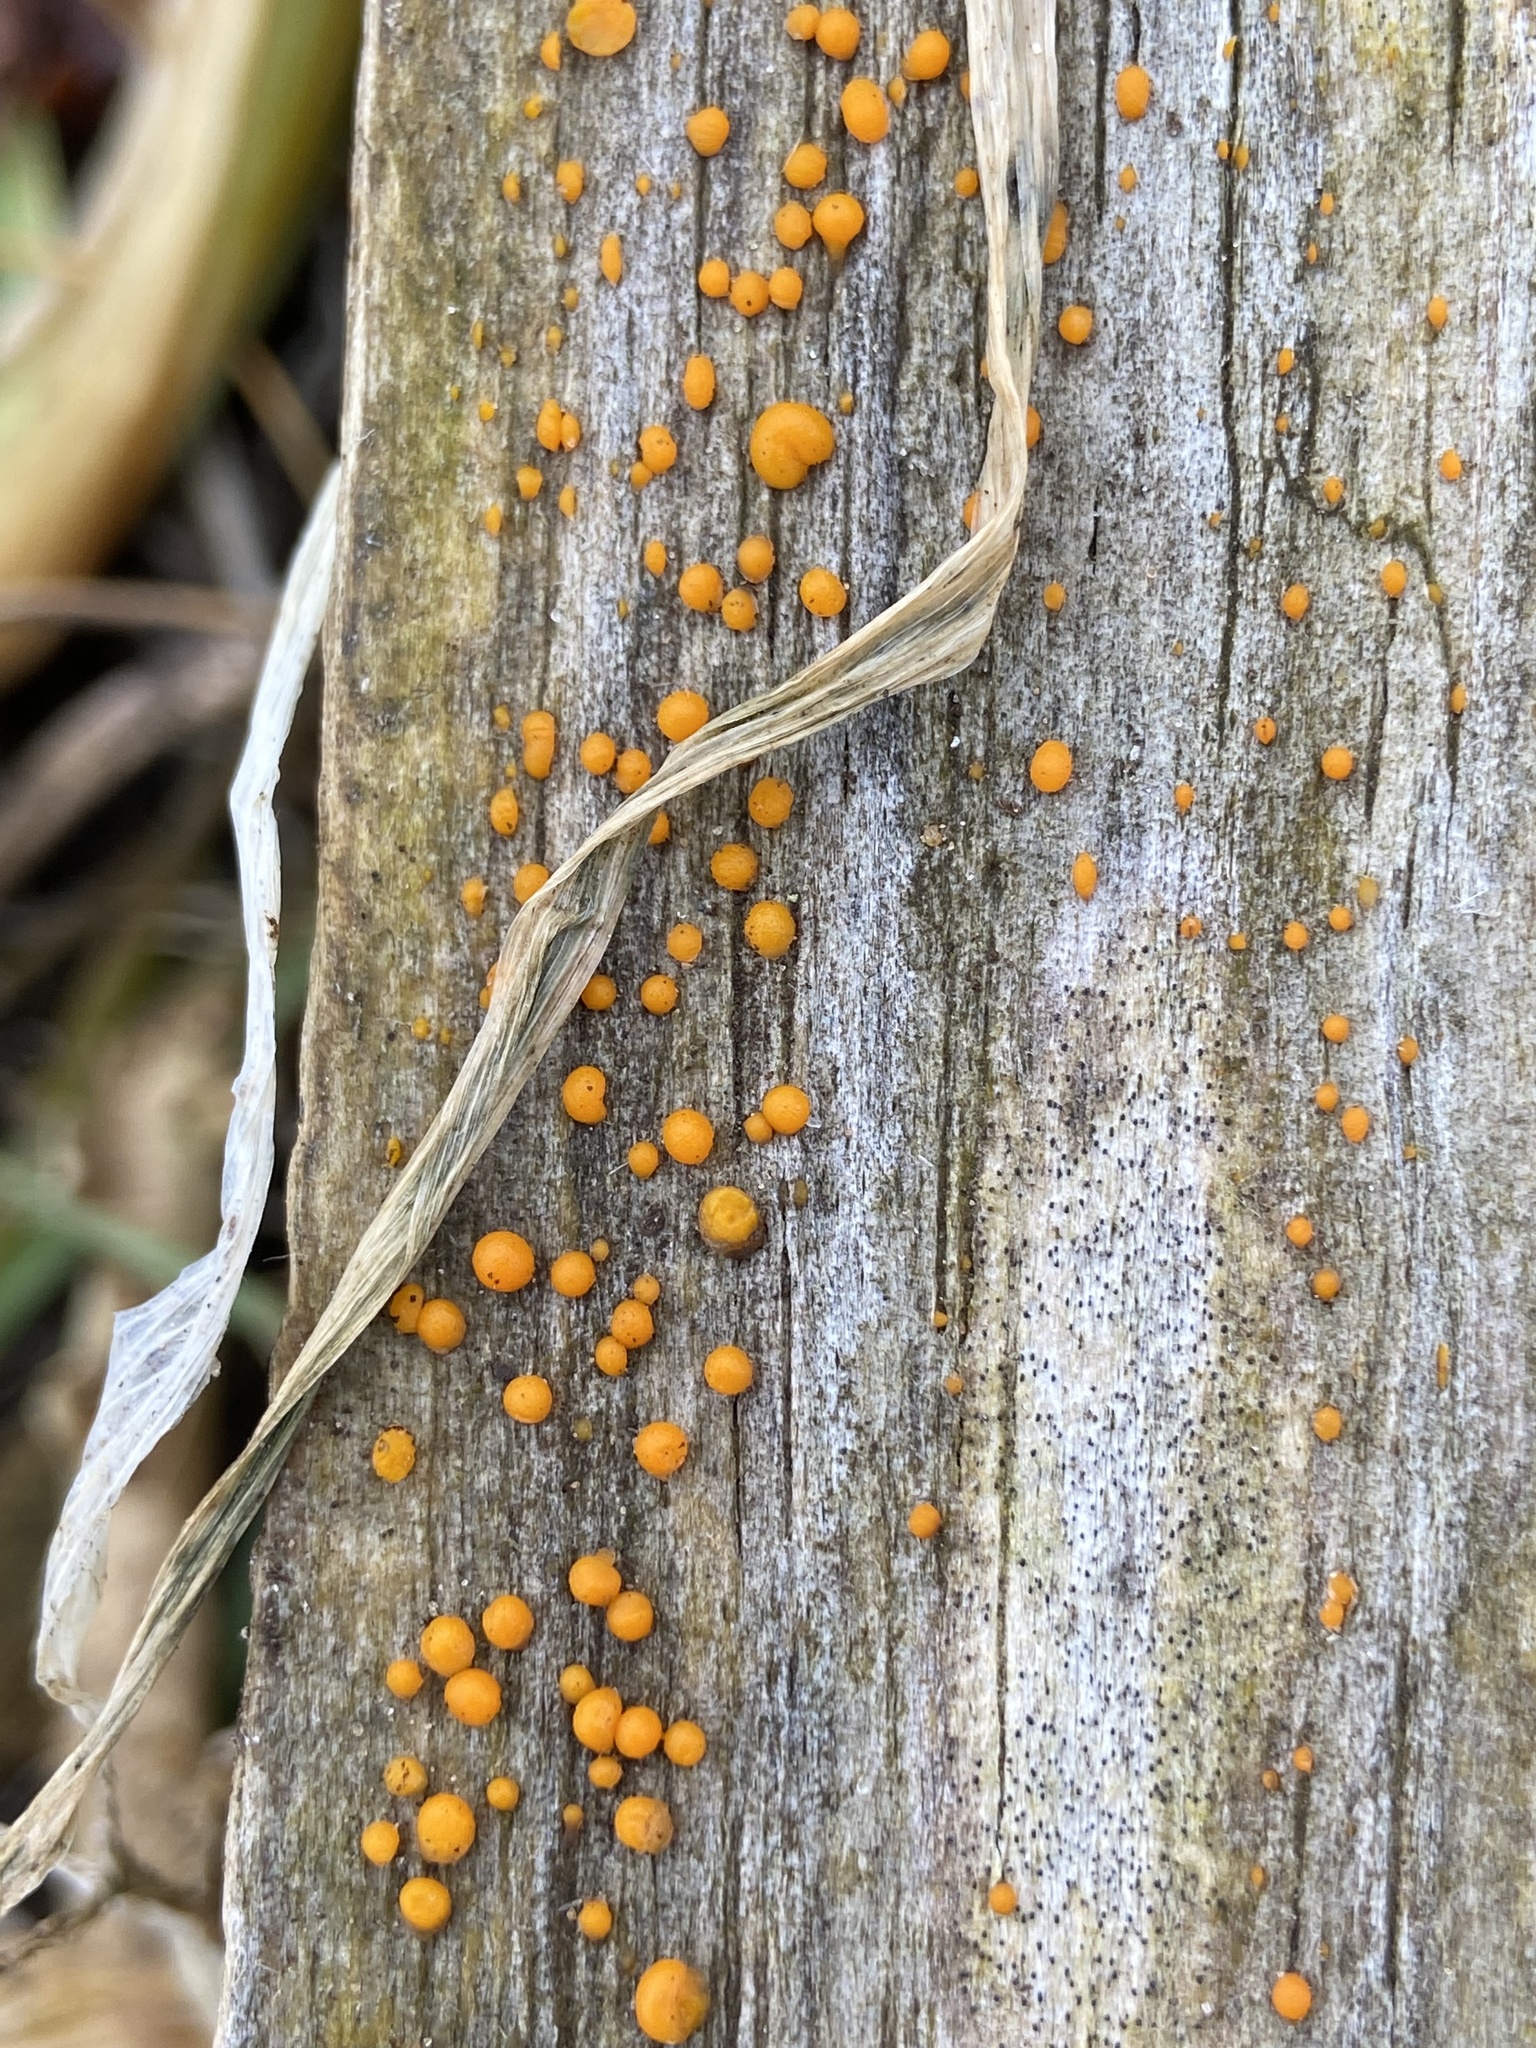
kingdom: Fungi
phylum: Basidiomycota
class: Dacrymycetes
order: Dacrymycetales
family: Dacrymycetaceae
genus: Dacrymyces
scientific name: Dacrymyces stillatus
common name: Common jelly spot
